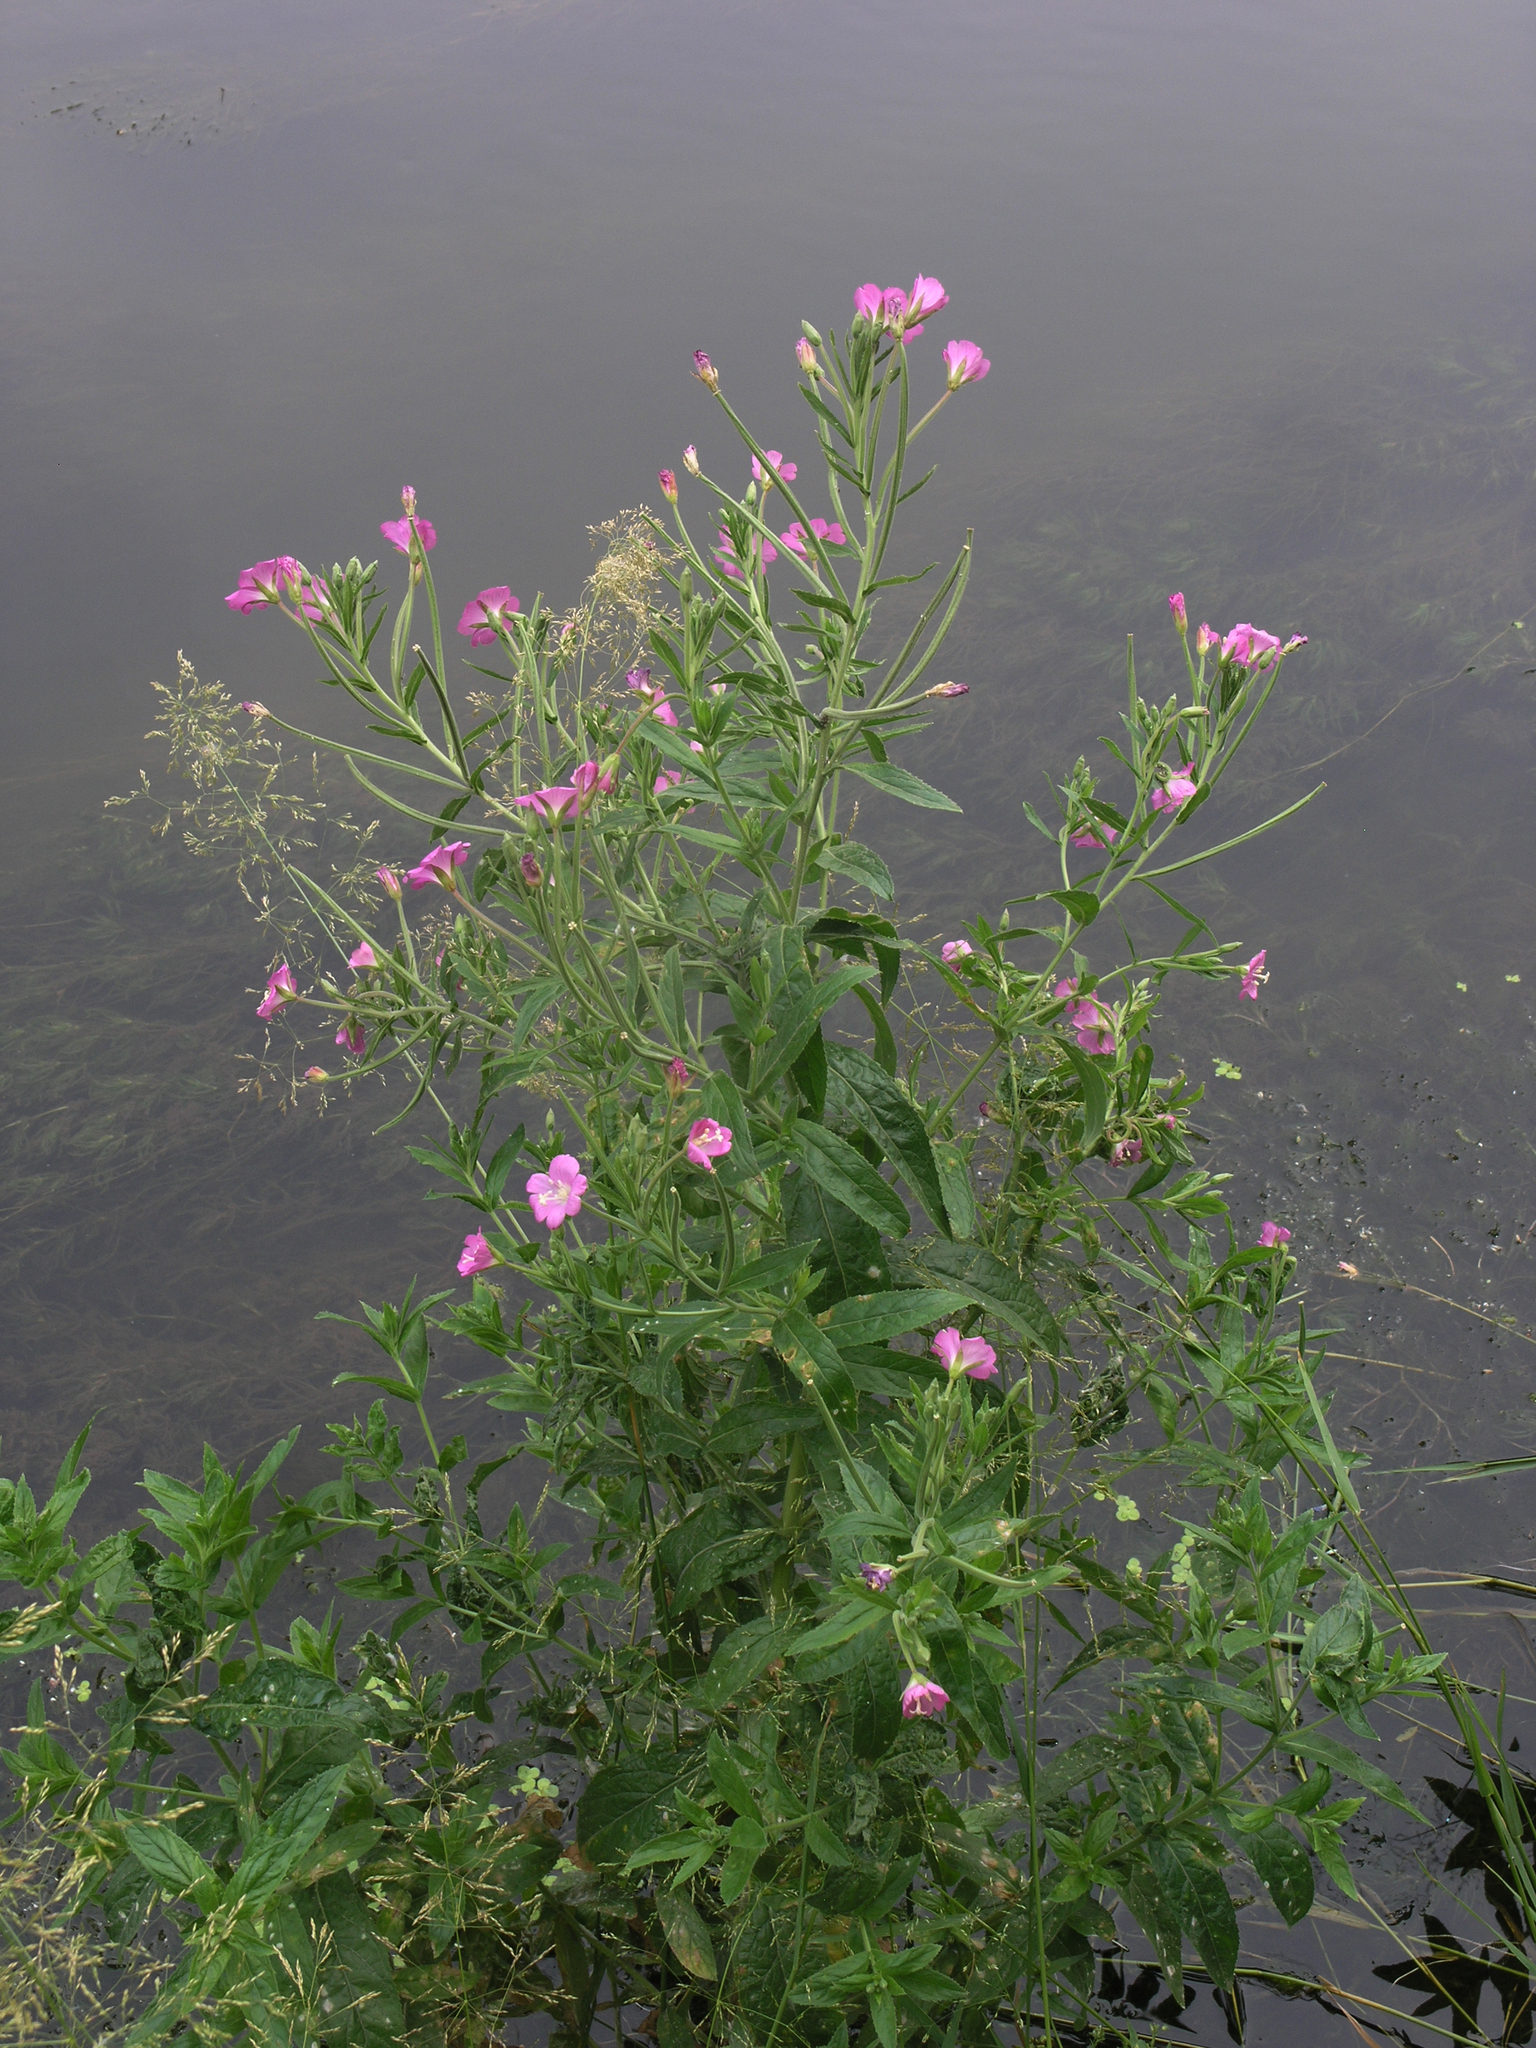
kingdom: Plantae
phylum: Tracheophyta
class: Magnoliopsida
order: Myrtales
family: Onagraceae
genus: Epilobium
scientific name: Epilobium hirsutum
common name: Great willowherb
